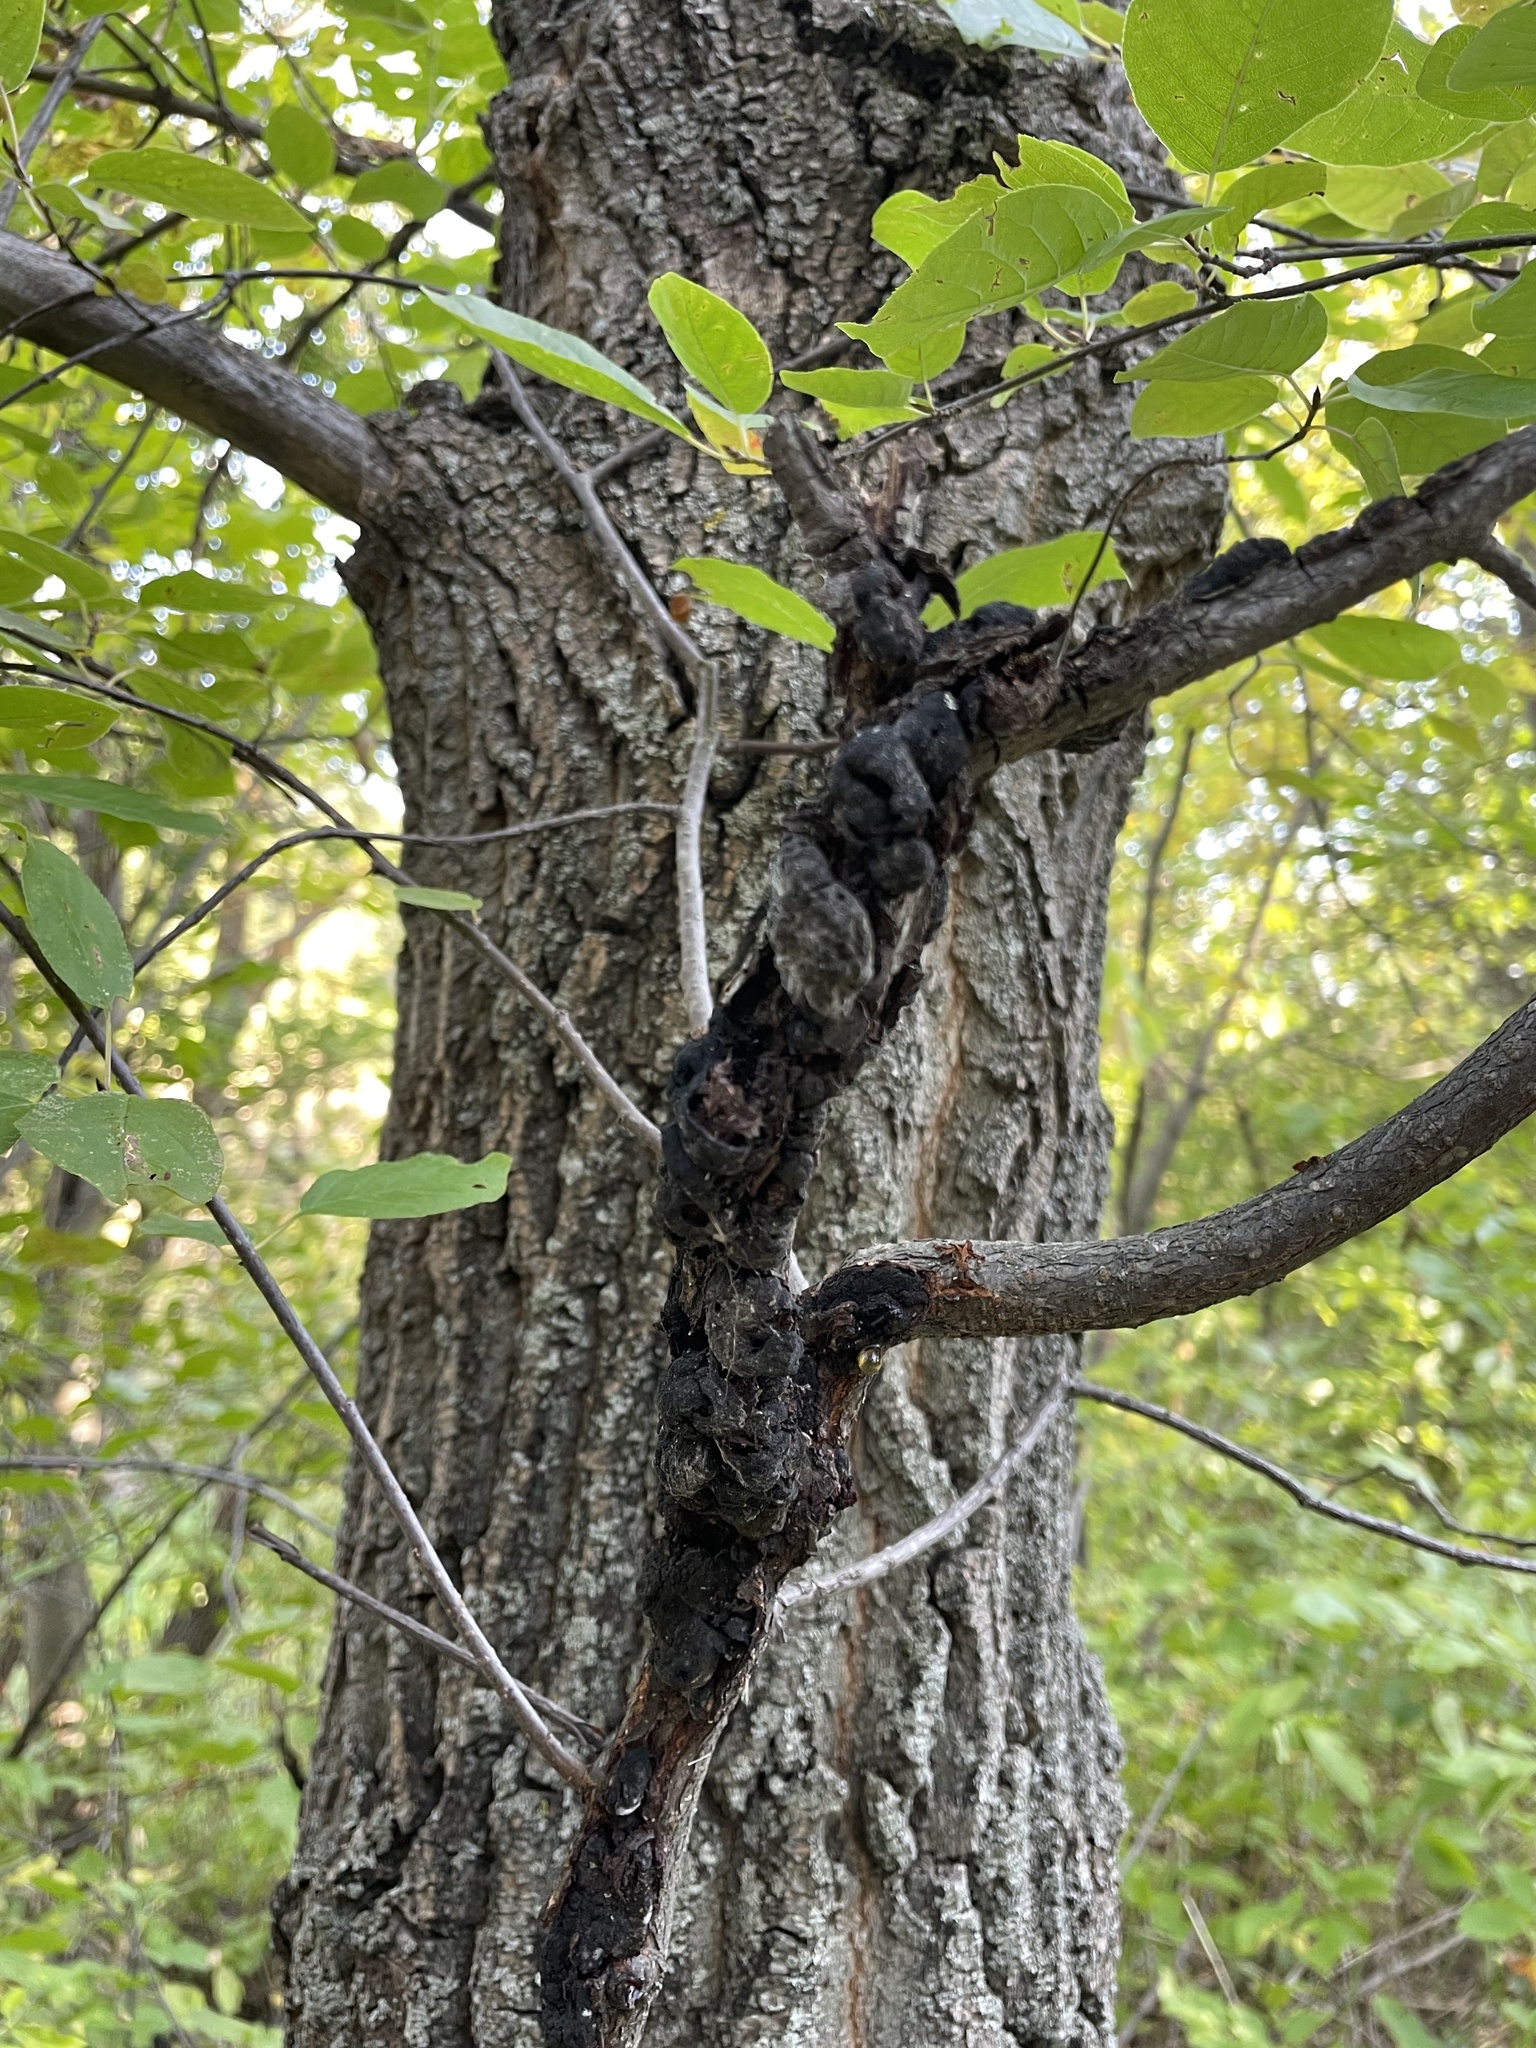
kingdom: Fungi
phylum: Ascomycota
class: Dothideomycetes
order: Venturiales
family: Venturiaceae
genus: Apiosporina
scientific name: Apiosporina morbosa
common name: Black knot
